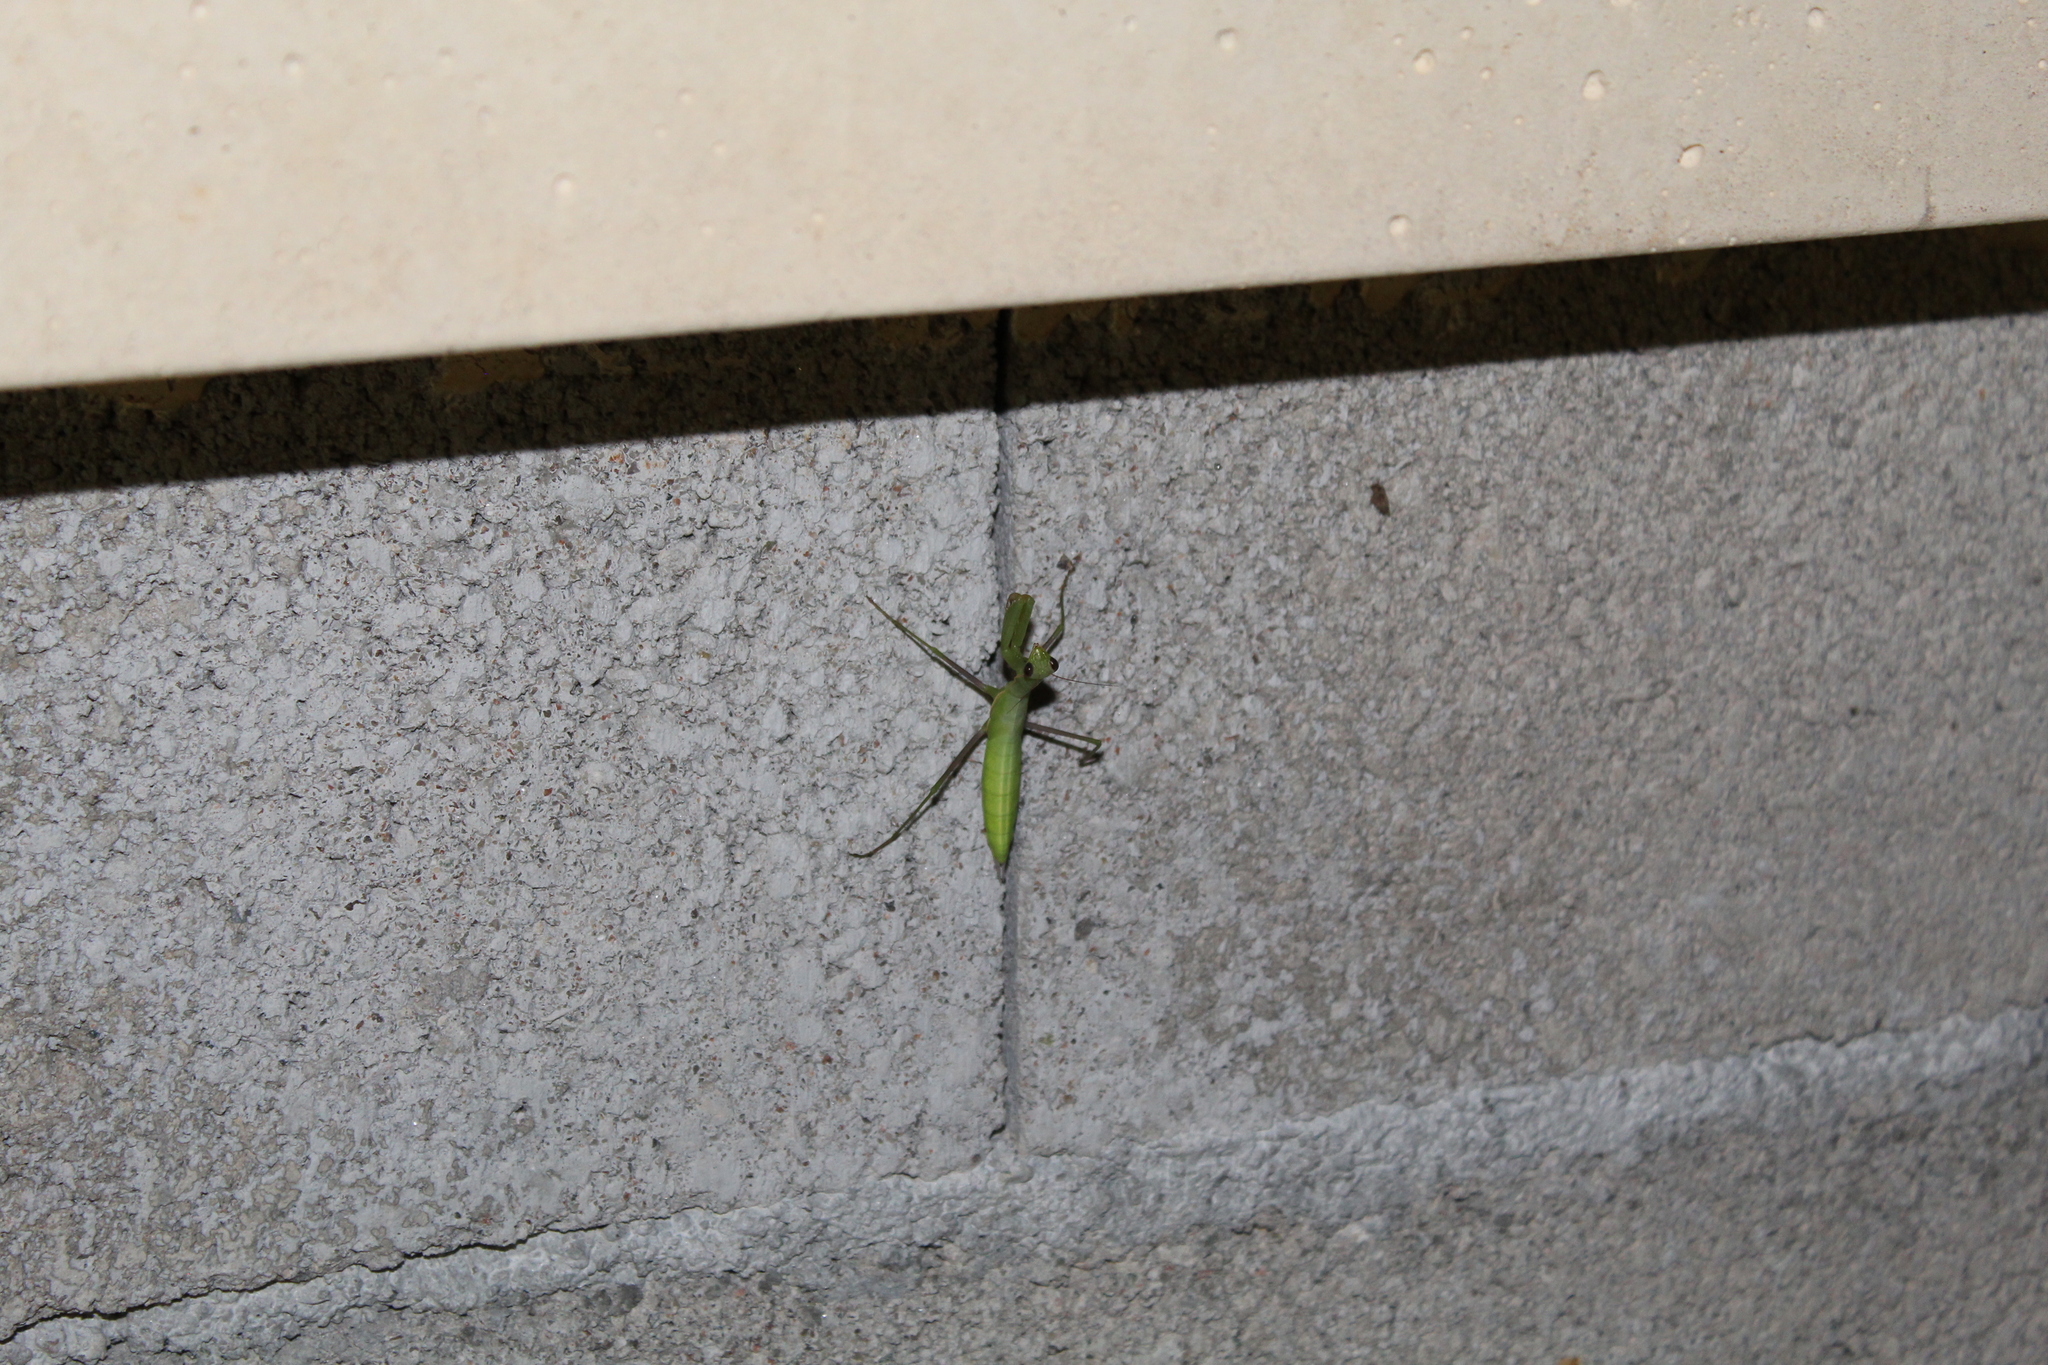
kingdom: Animalia
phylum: Arthropoda
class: Insecta
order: Mantodea
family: Mantidae
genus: Mantis
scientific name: Mantis religiosa
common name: Praying mantis
